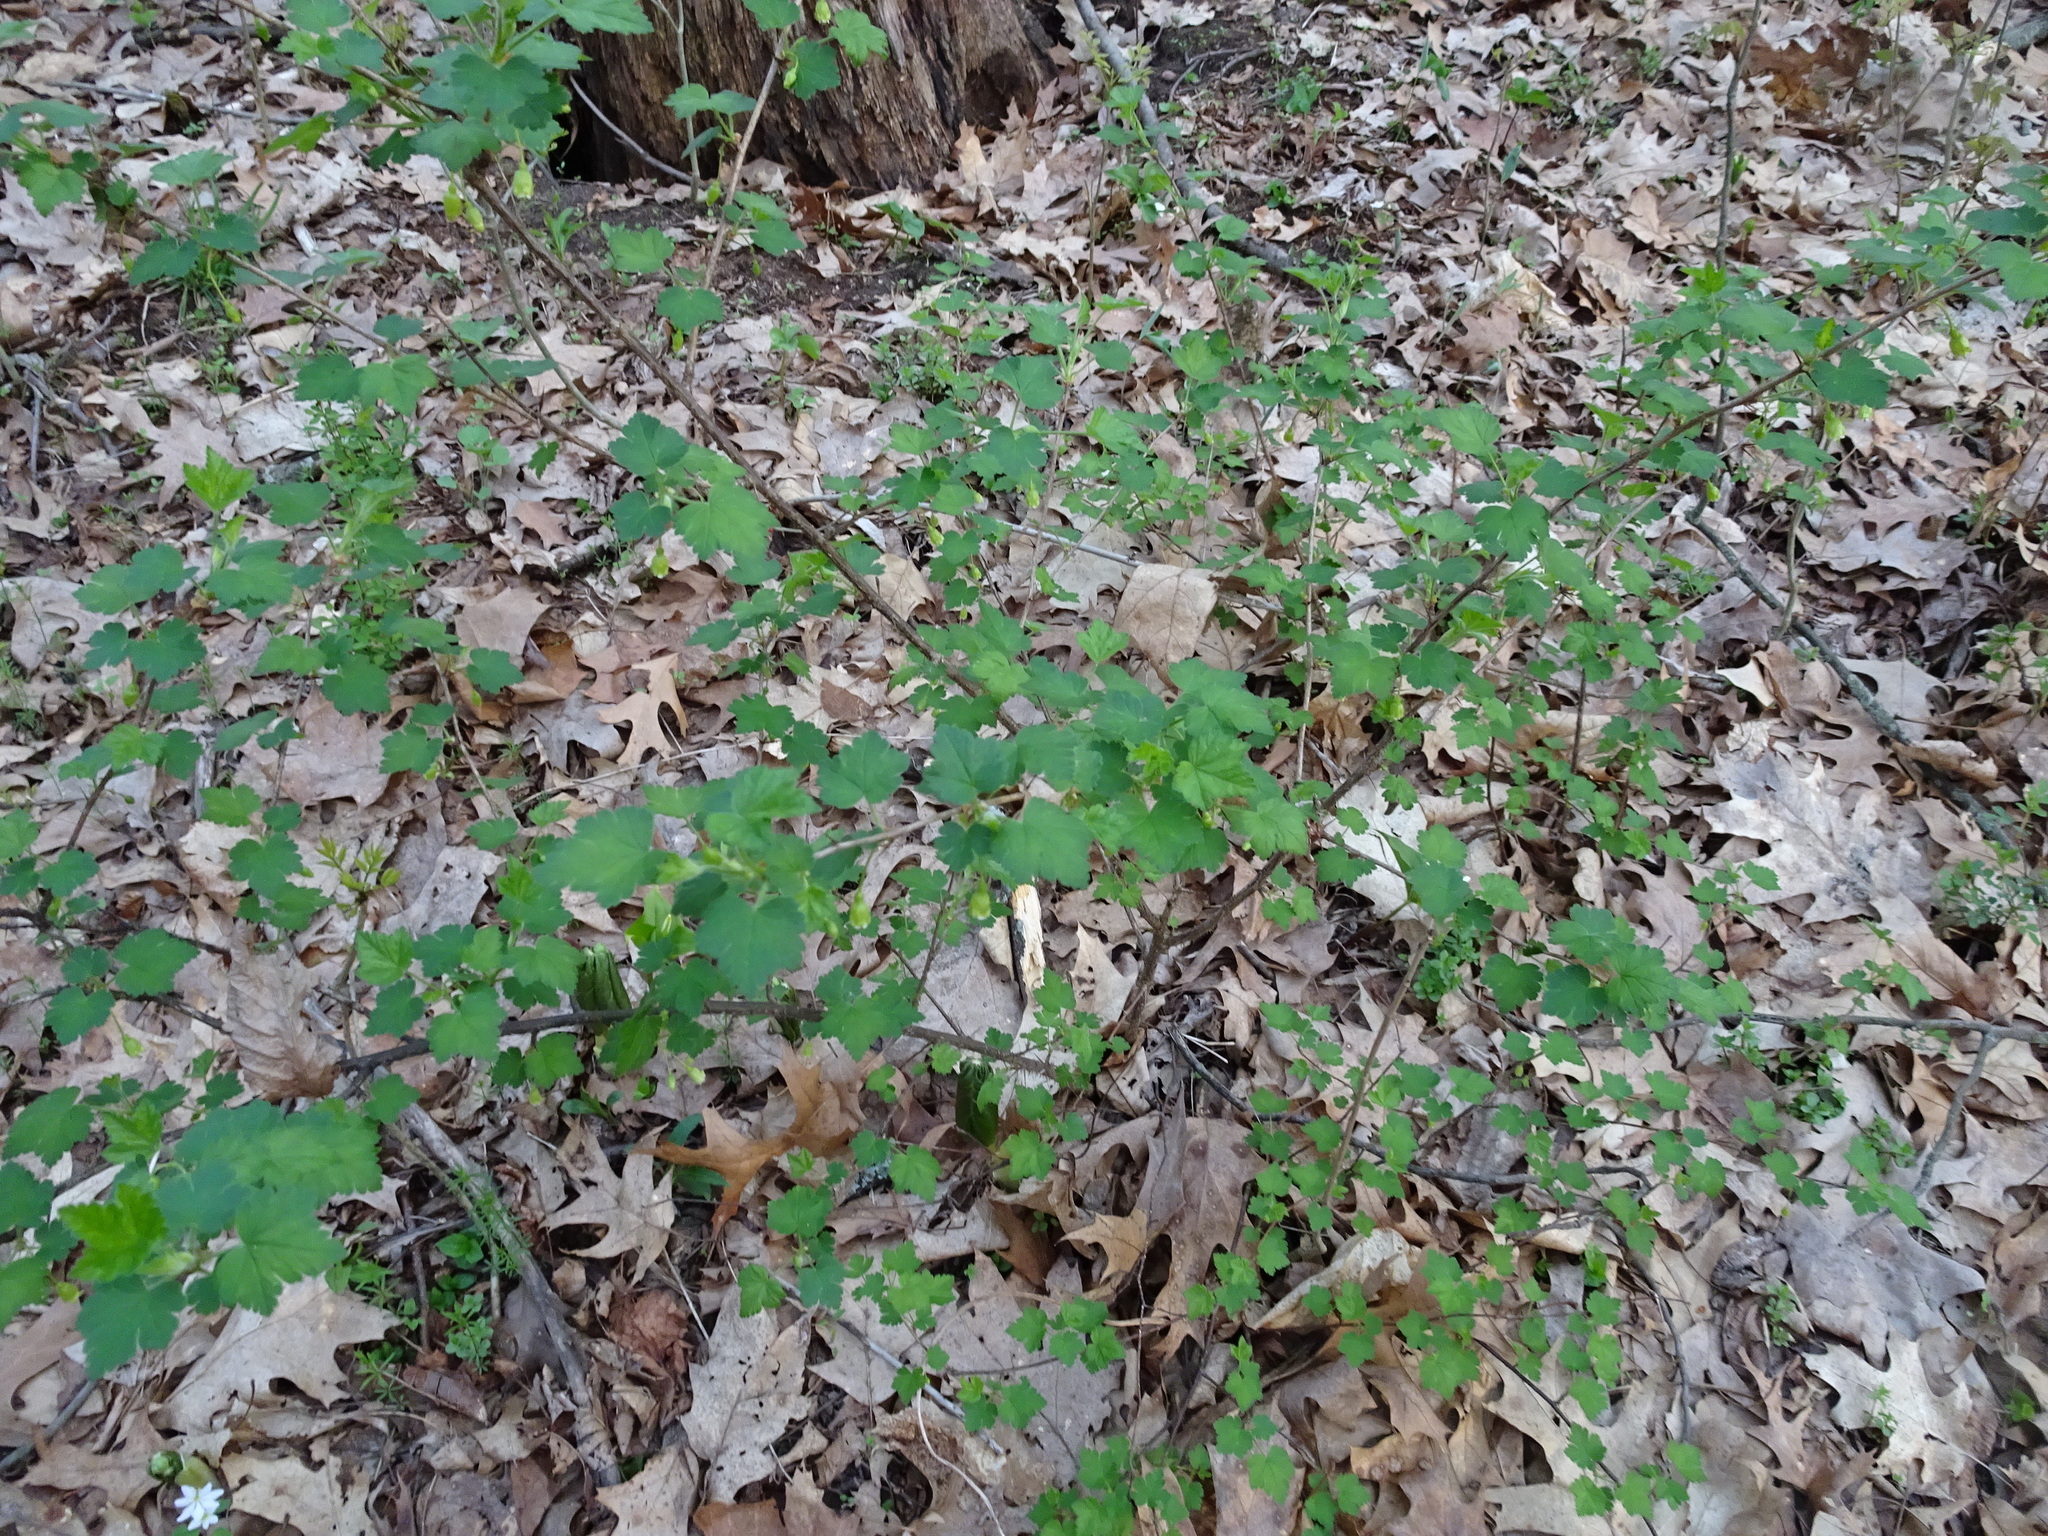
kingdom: Plantae
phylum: Tracheophyta
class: Magnoliopsida
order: Saxifragales
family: Grossulariaceae
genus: Ribes
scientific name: Ribes cynosbati
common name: American gooseberry
